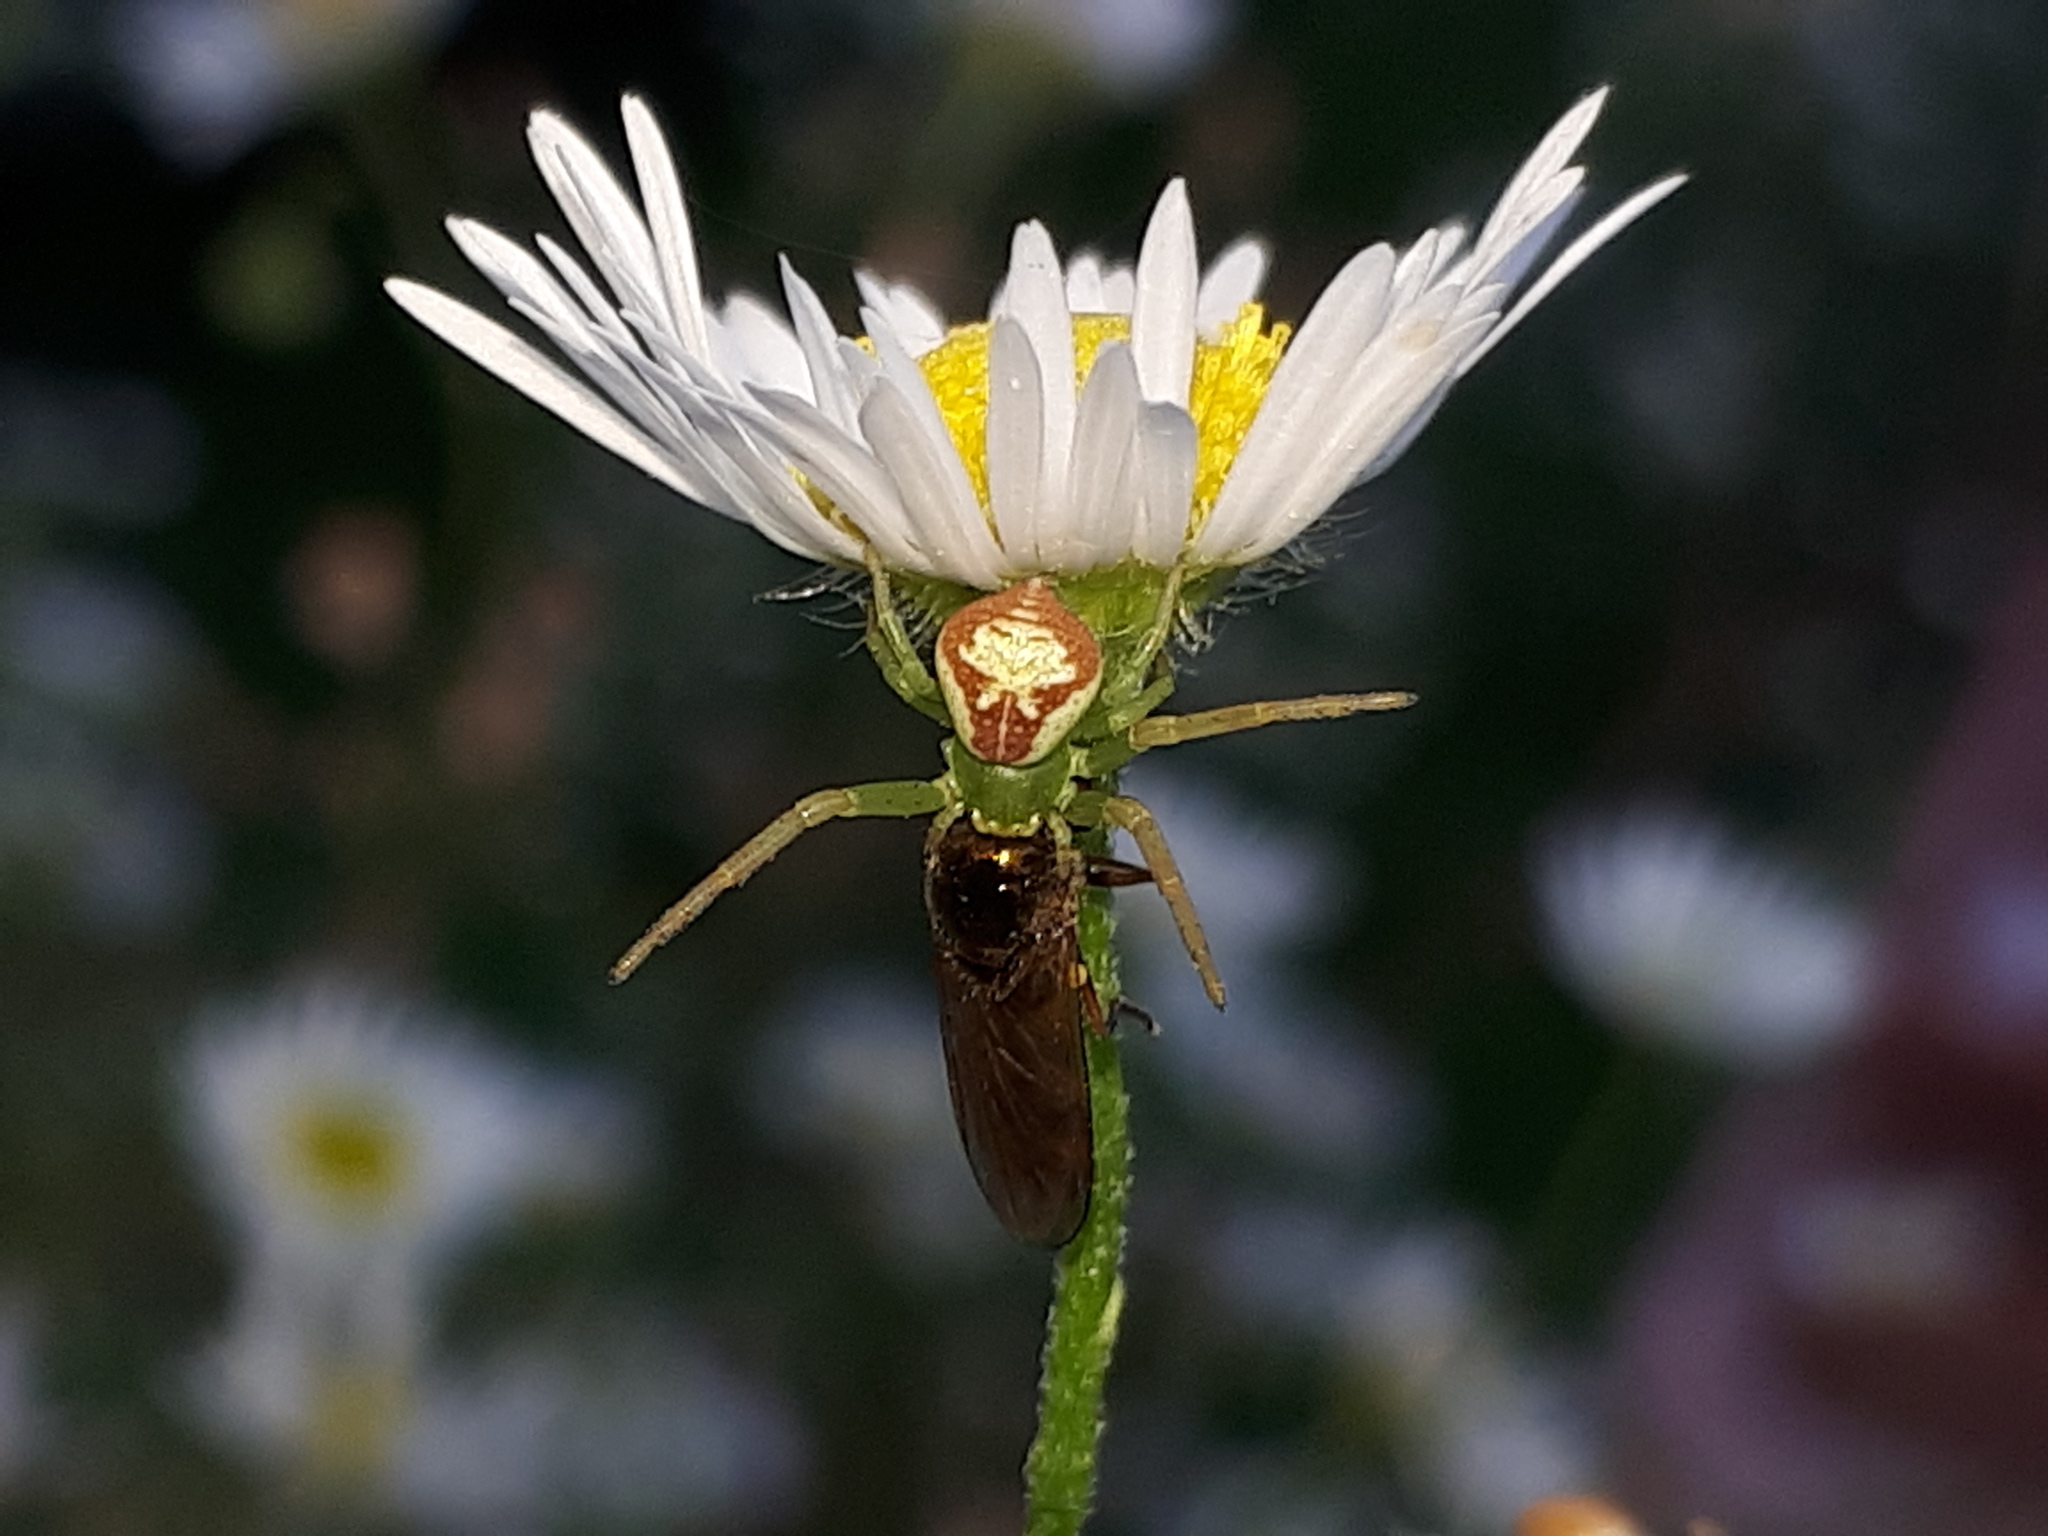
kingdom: Animalia
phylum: Arthropoda
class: Arachnida
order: Araneae
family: Thomisidae
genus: Ebrechtella
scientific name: Ebrechtella tricuspidata
